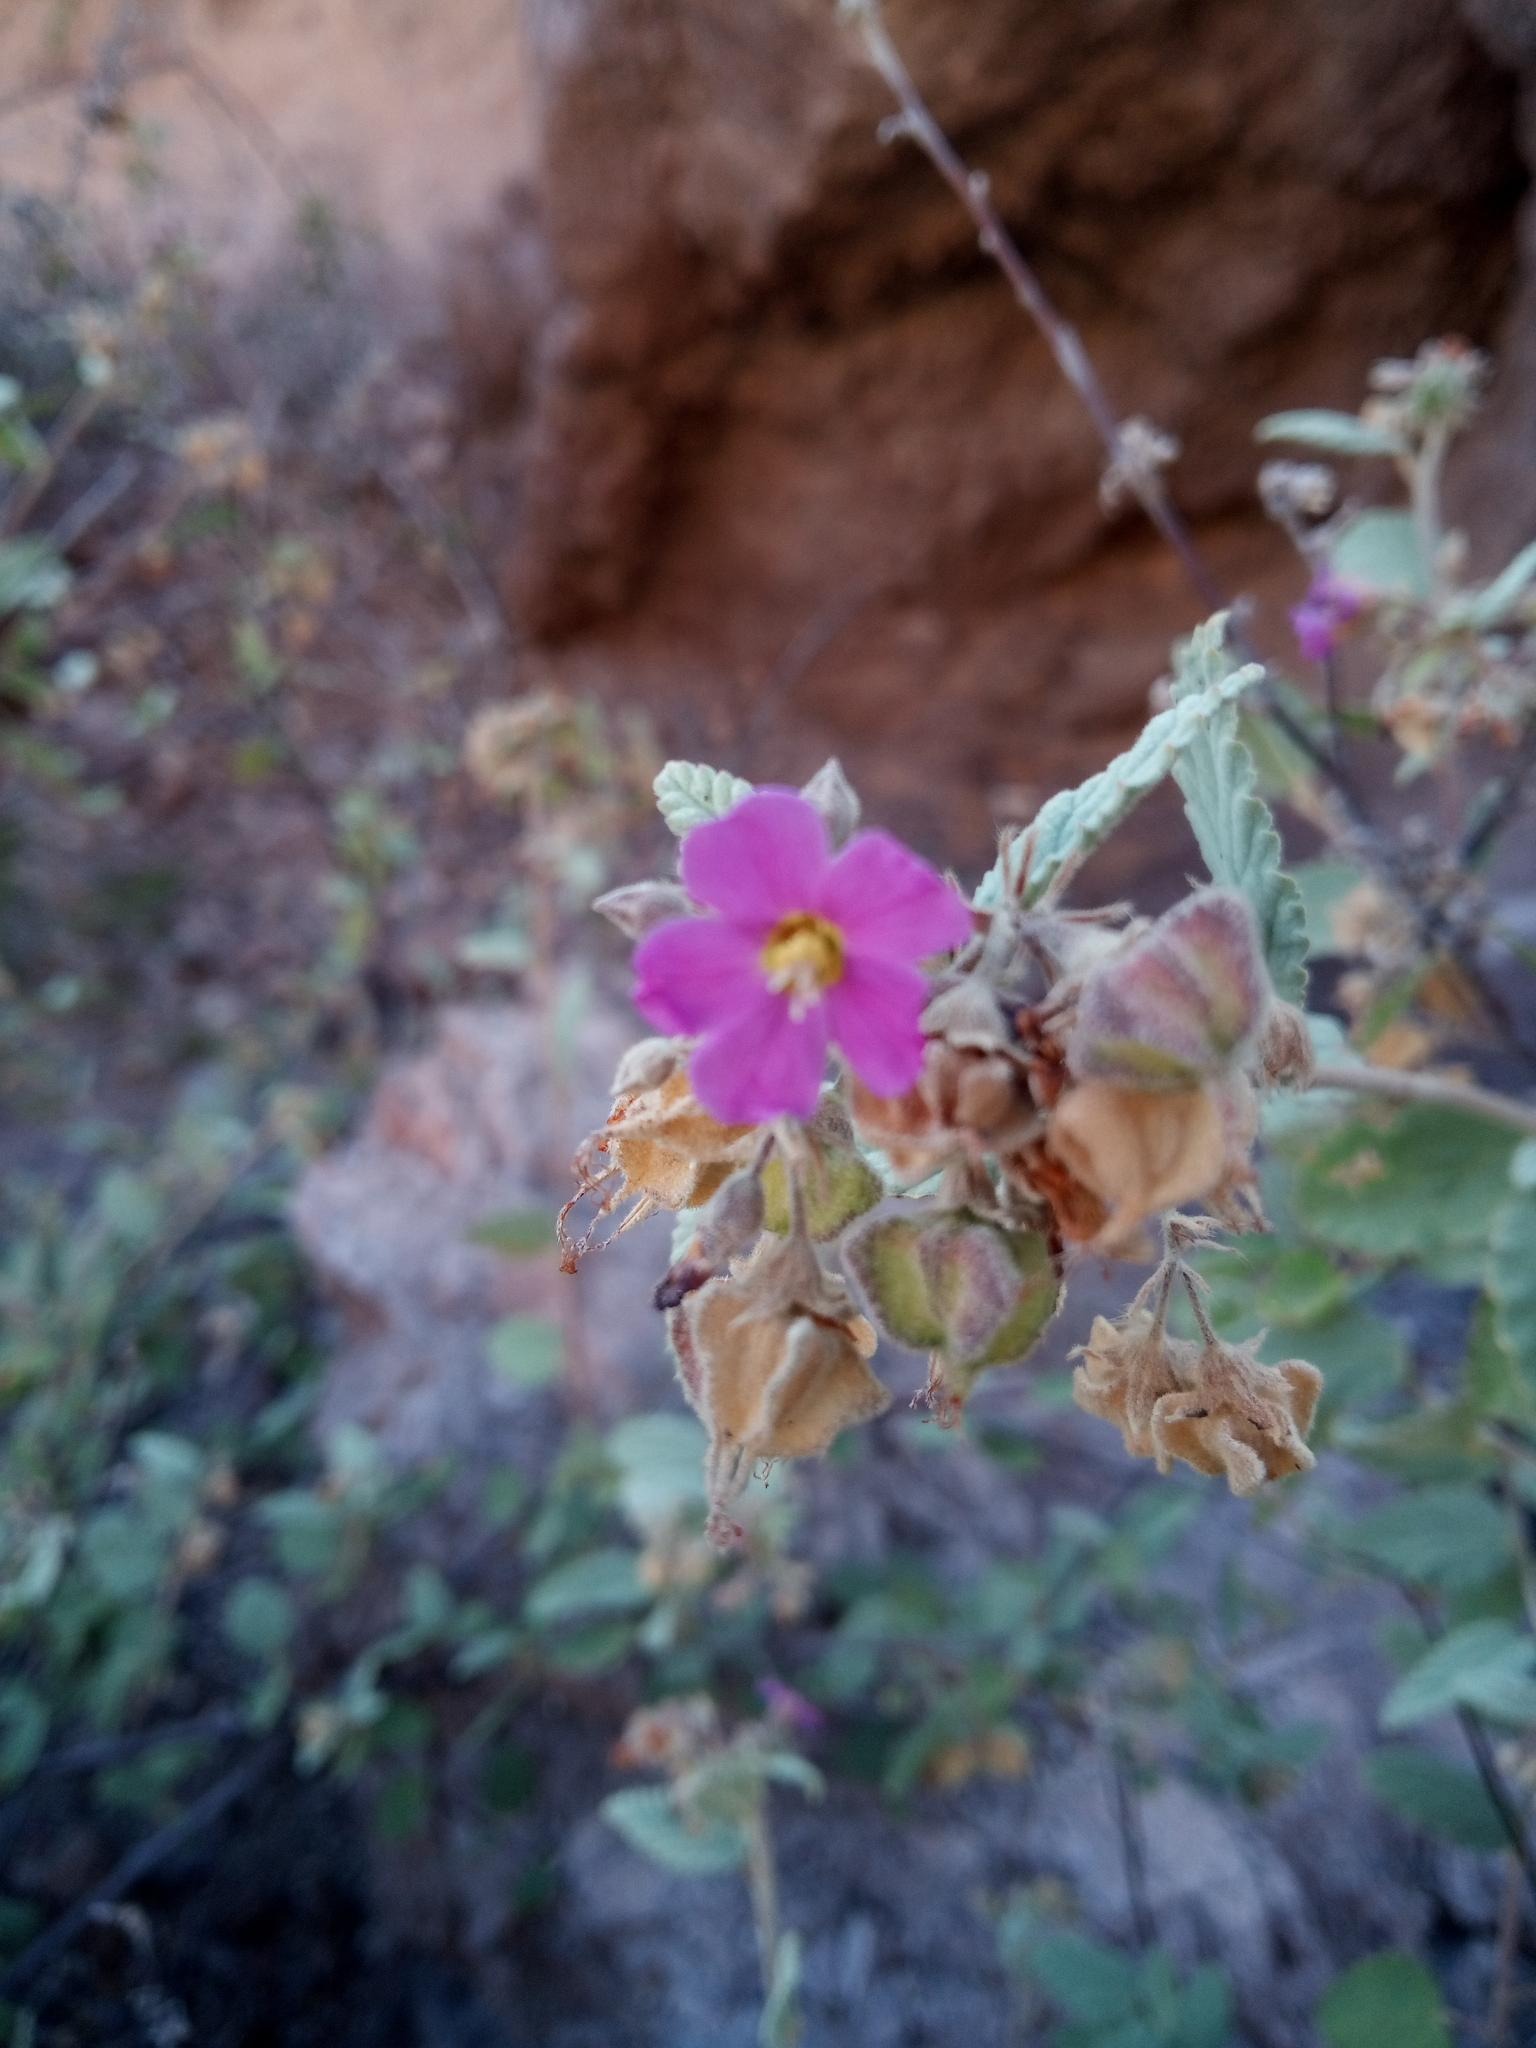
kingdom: Plantae
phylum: Tracheophyta
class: Magnoliopsida
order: Malvales
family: Malvaceae
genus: Melochia
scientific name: Melochia tomentosa
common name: Black torch
